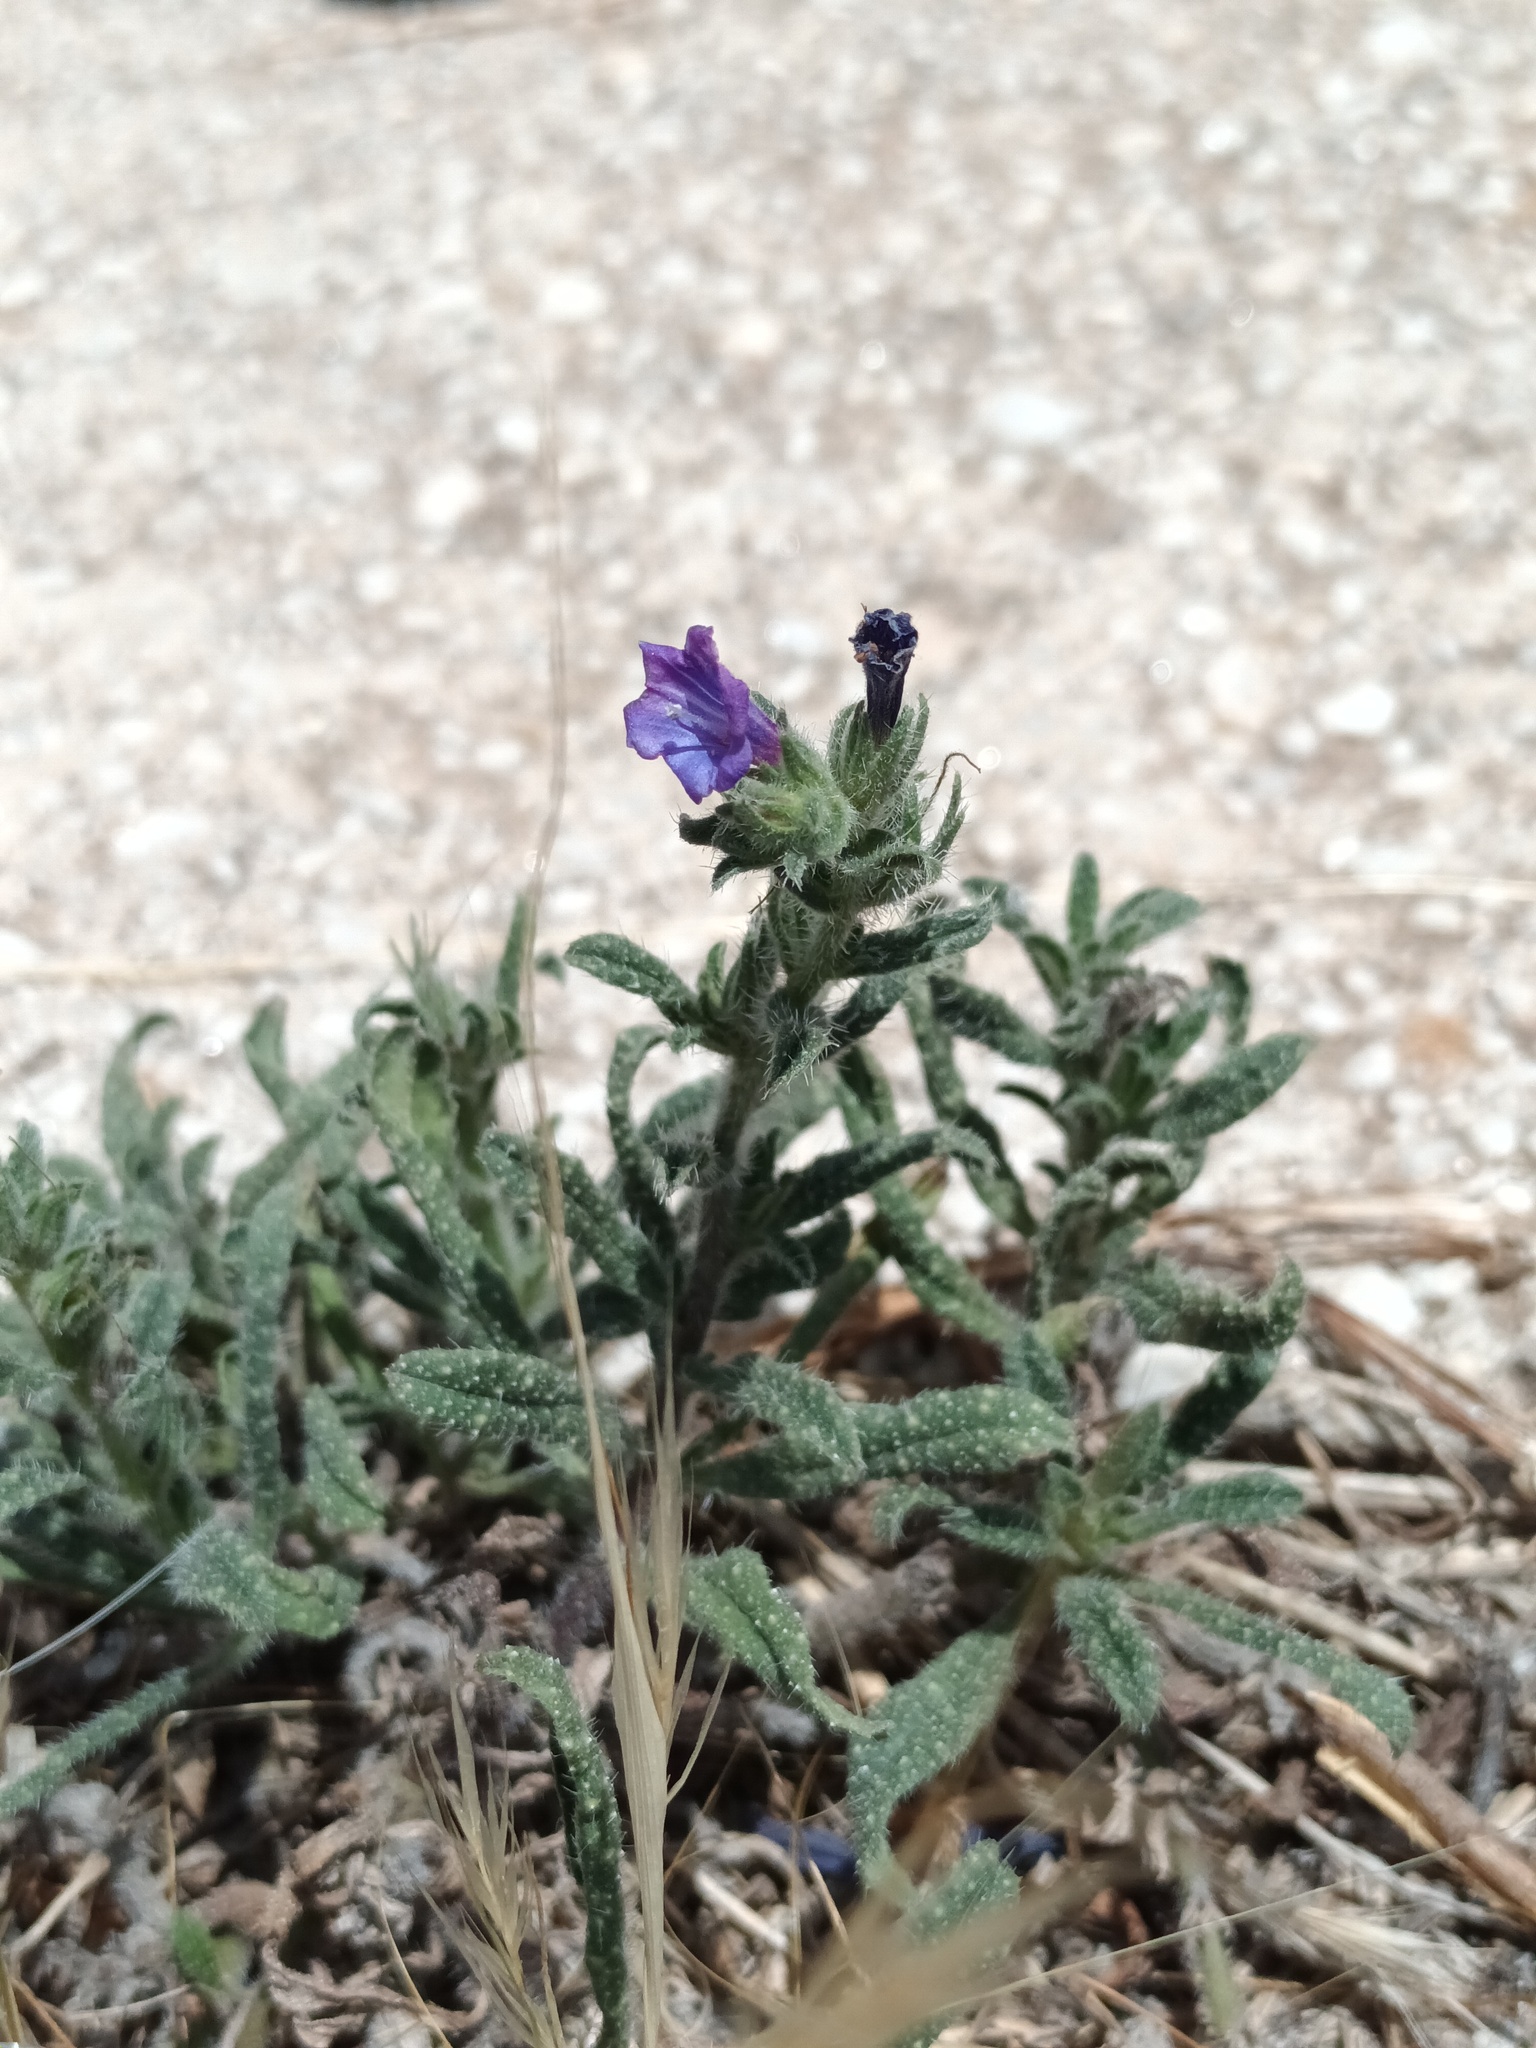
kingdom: Plantae
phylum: Tracheophyta
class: Magnoliopsida
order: Boraginales
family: Boraginaceae
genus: Echium
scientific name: Echium sabulicola
